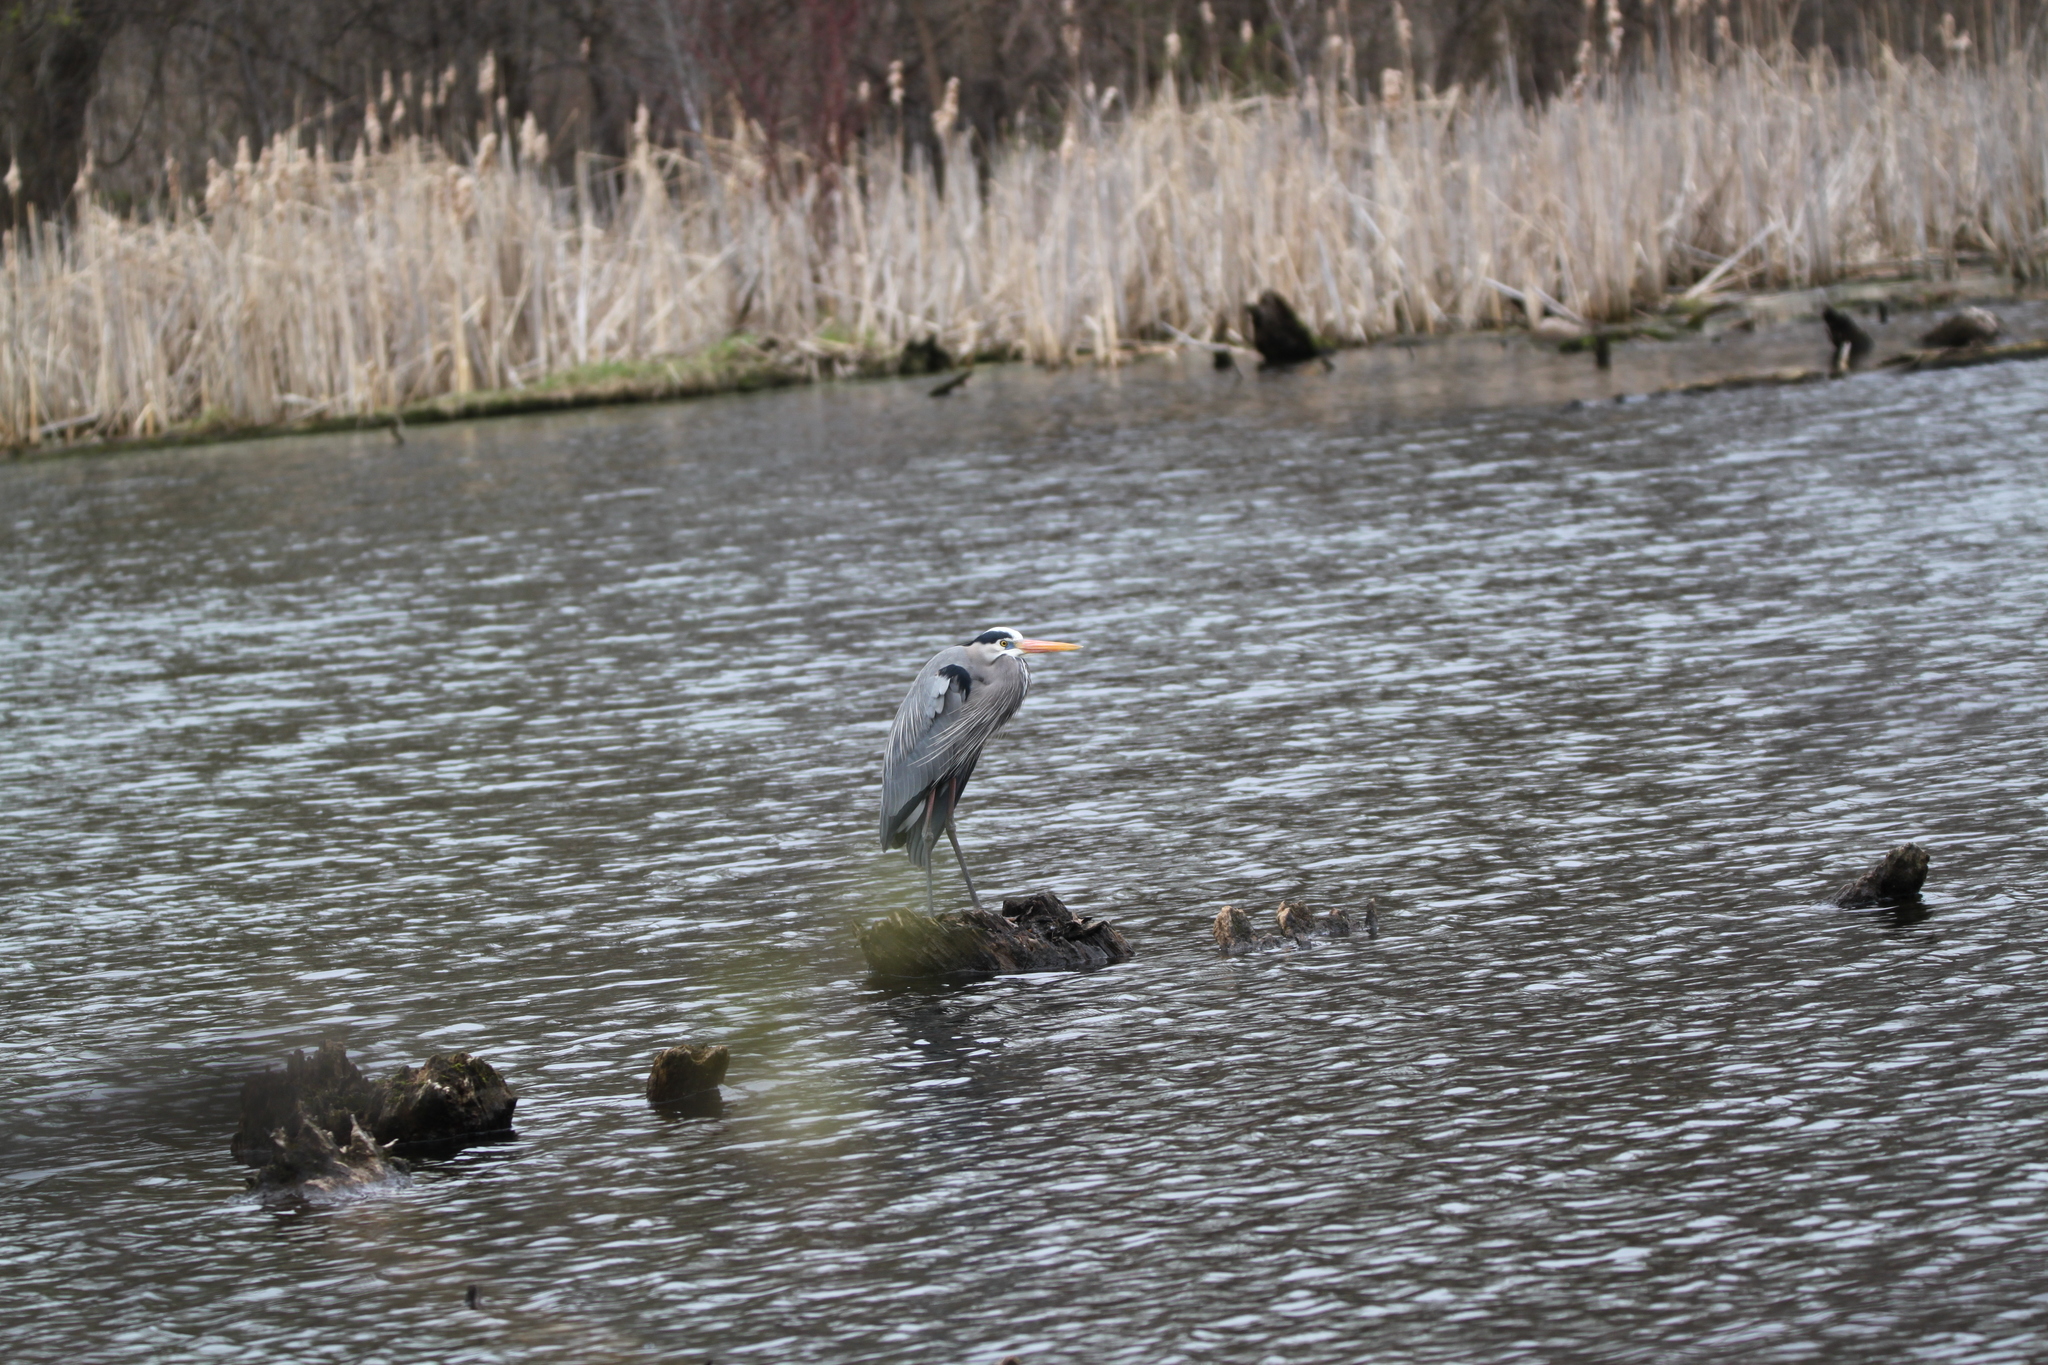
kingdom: Animalia
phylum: Chordata
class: Aves
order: Pelecaniformes
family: Ardeidae
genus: Ardea
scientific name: Ardea herodias
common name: Great blue heron
